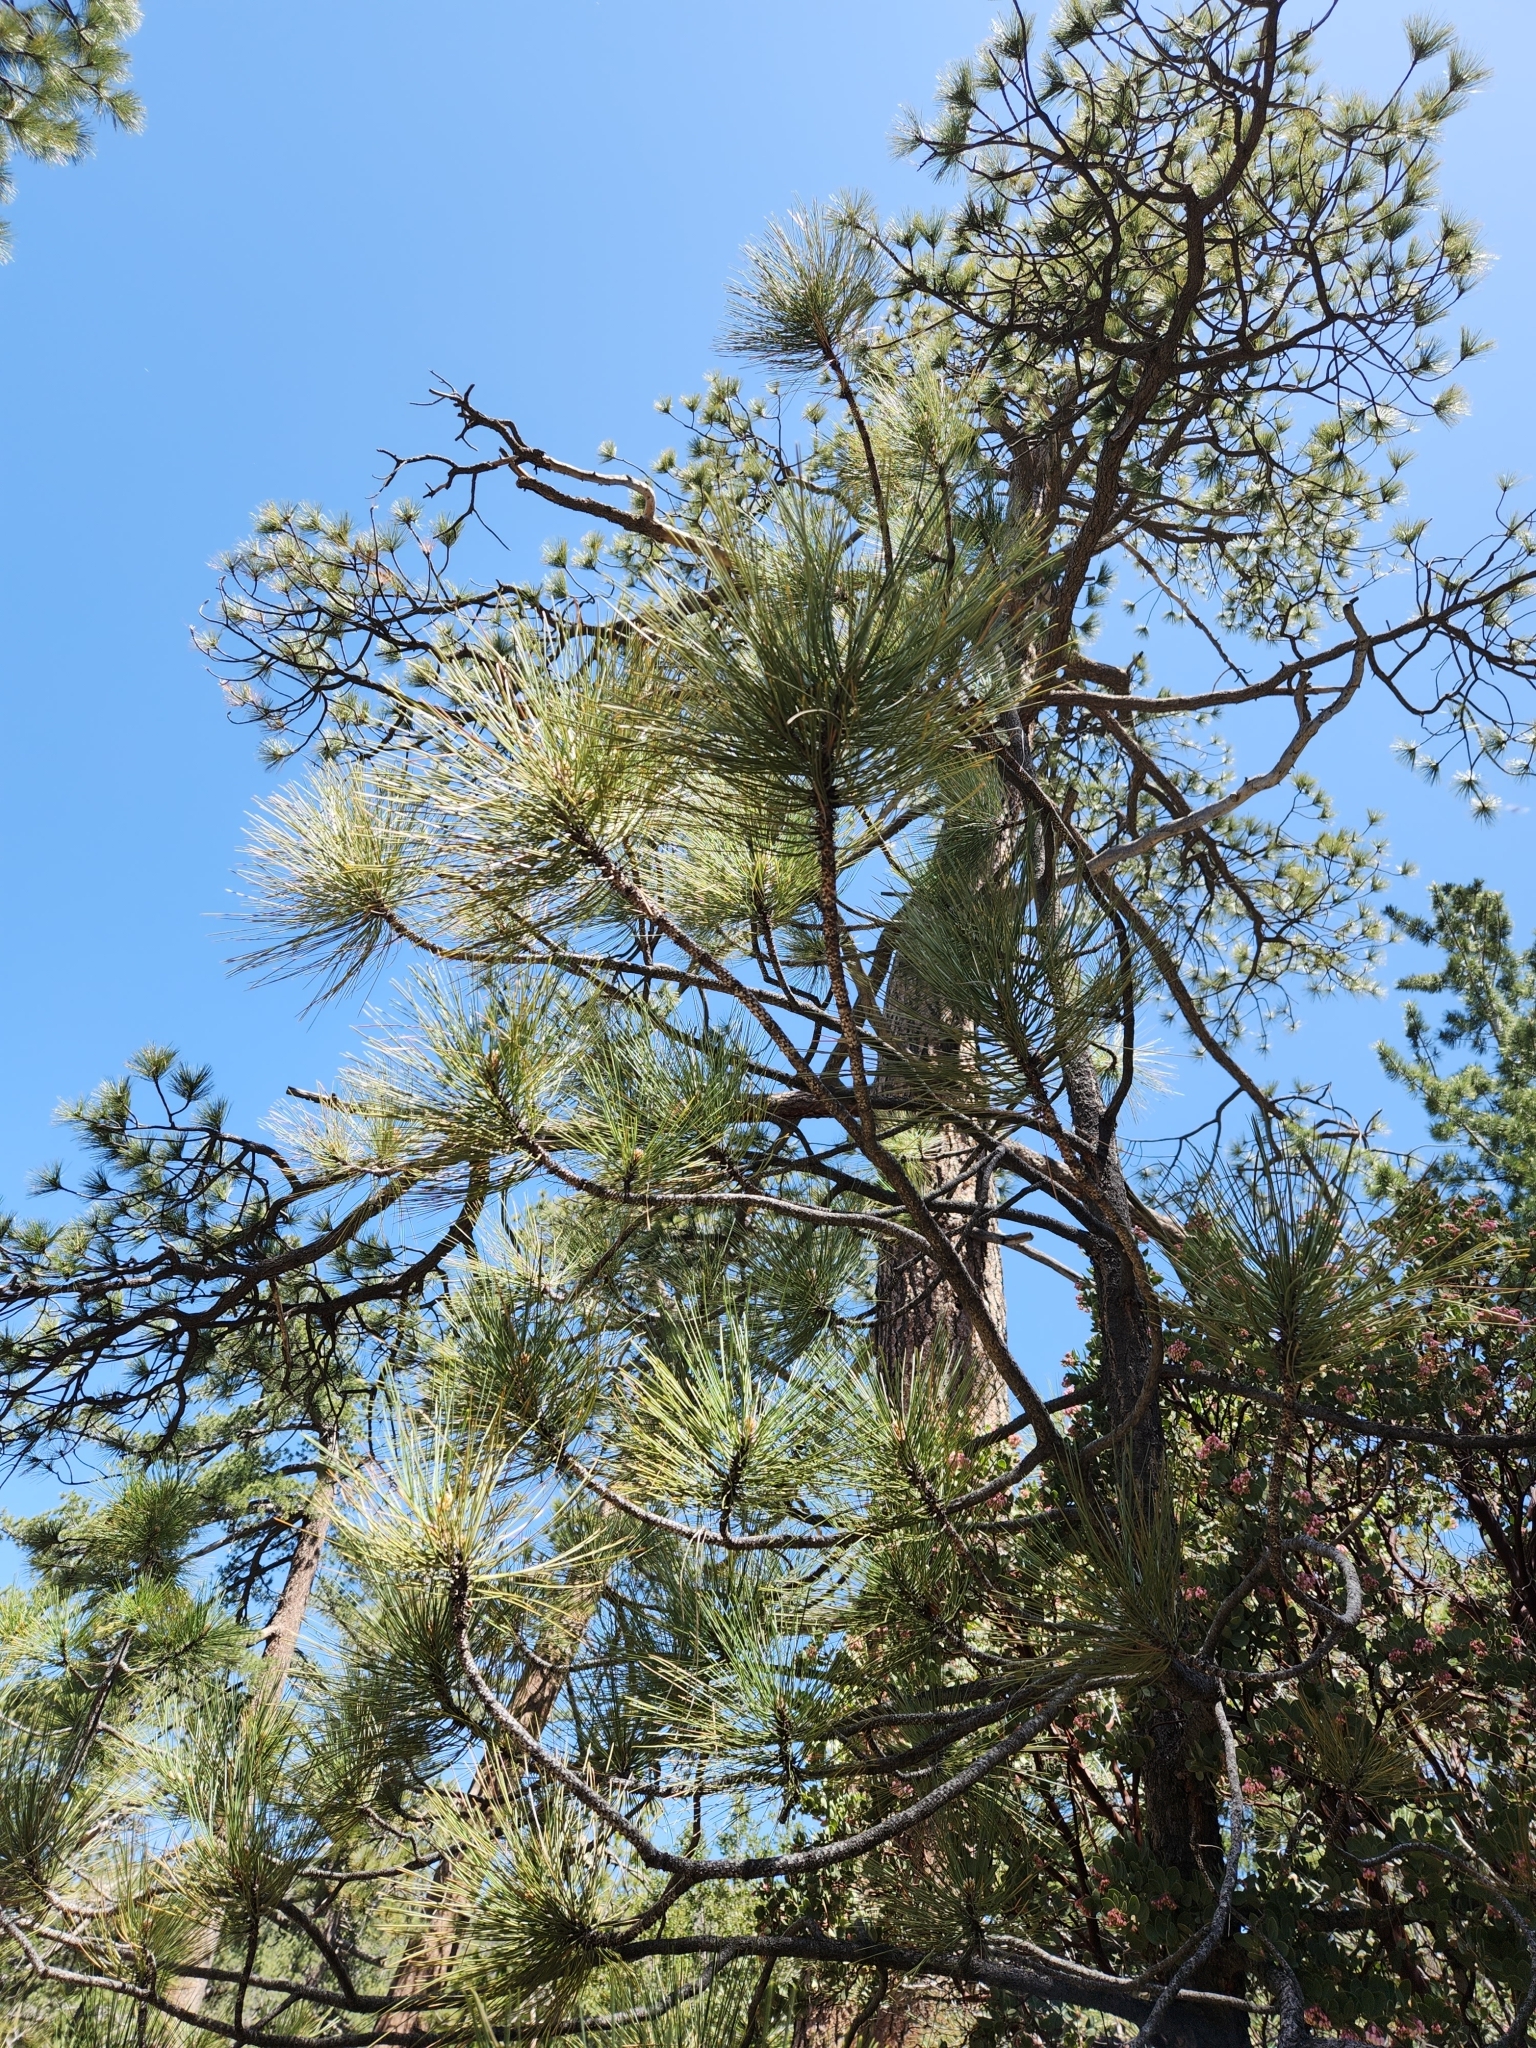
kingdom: Plantae
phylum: Tracheophyta
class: Pinopsida
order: Pinales
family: Pinaceae
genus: Pinus
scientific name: Pinus jeffreyi
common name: Jeffrey pine
